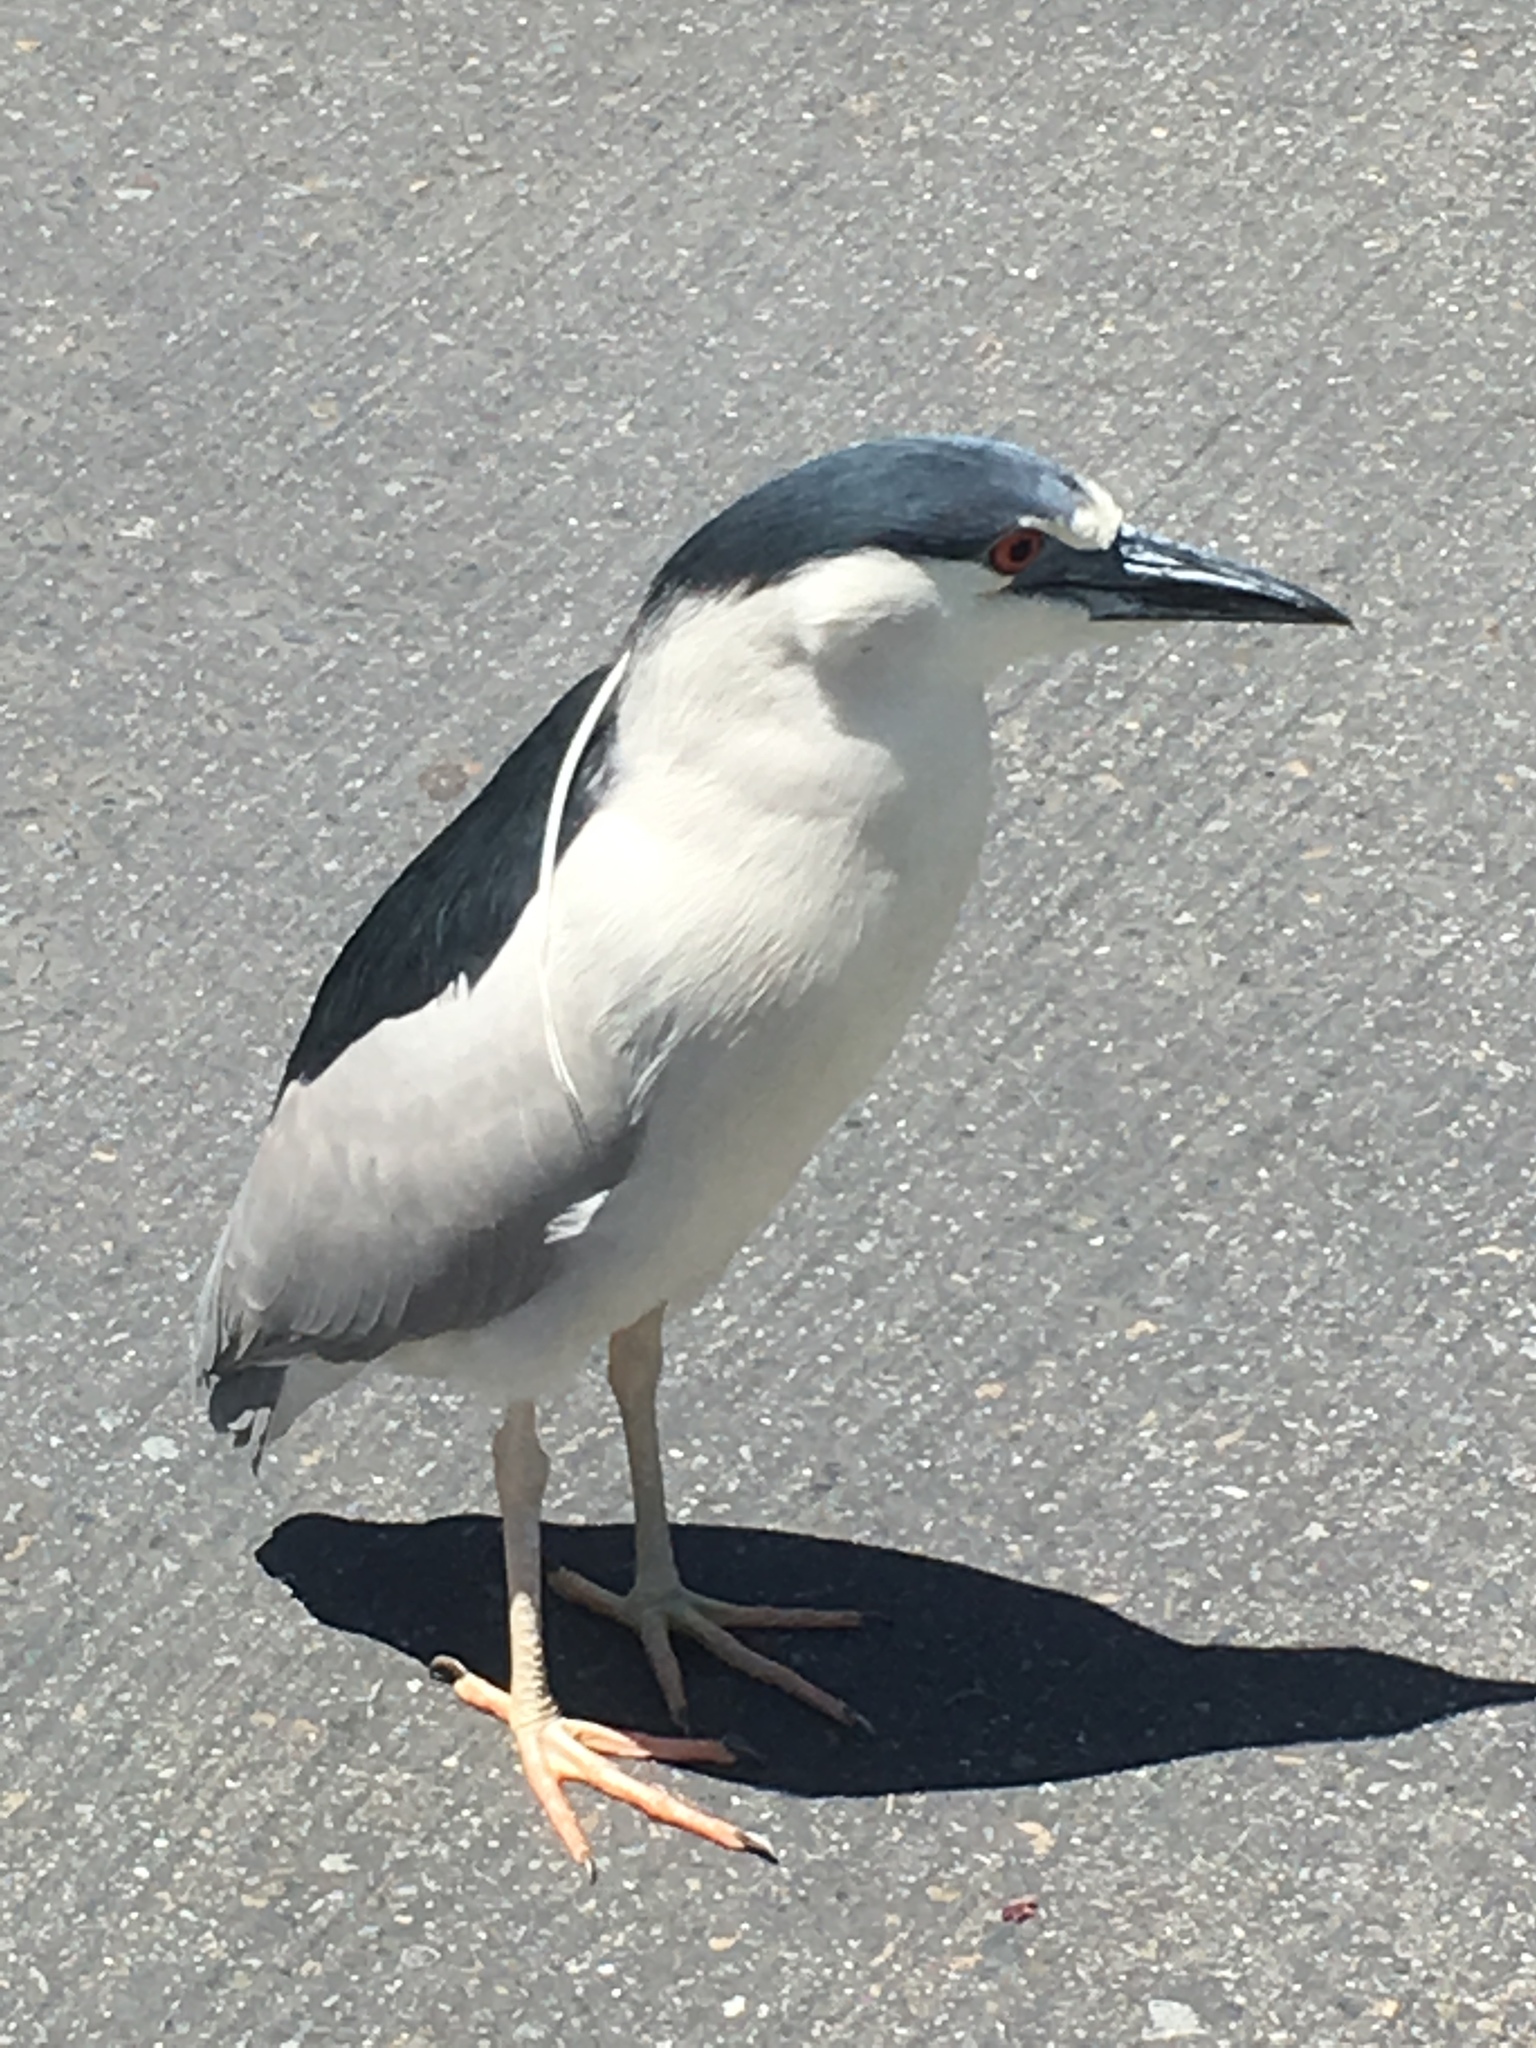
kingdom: Animalia
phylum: Chordata
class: Aves
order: Pelecaniformes
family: Ardeidae
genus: Nycticorax
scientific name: Nycticorax nycticorax
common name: Black-crowned night heron
